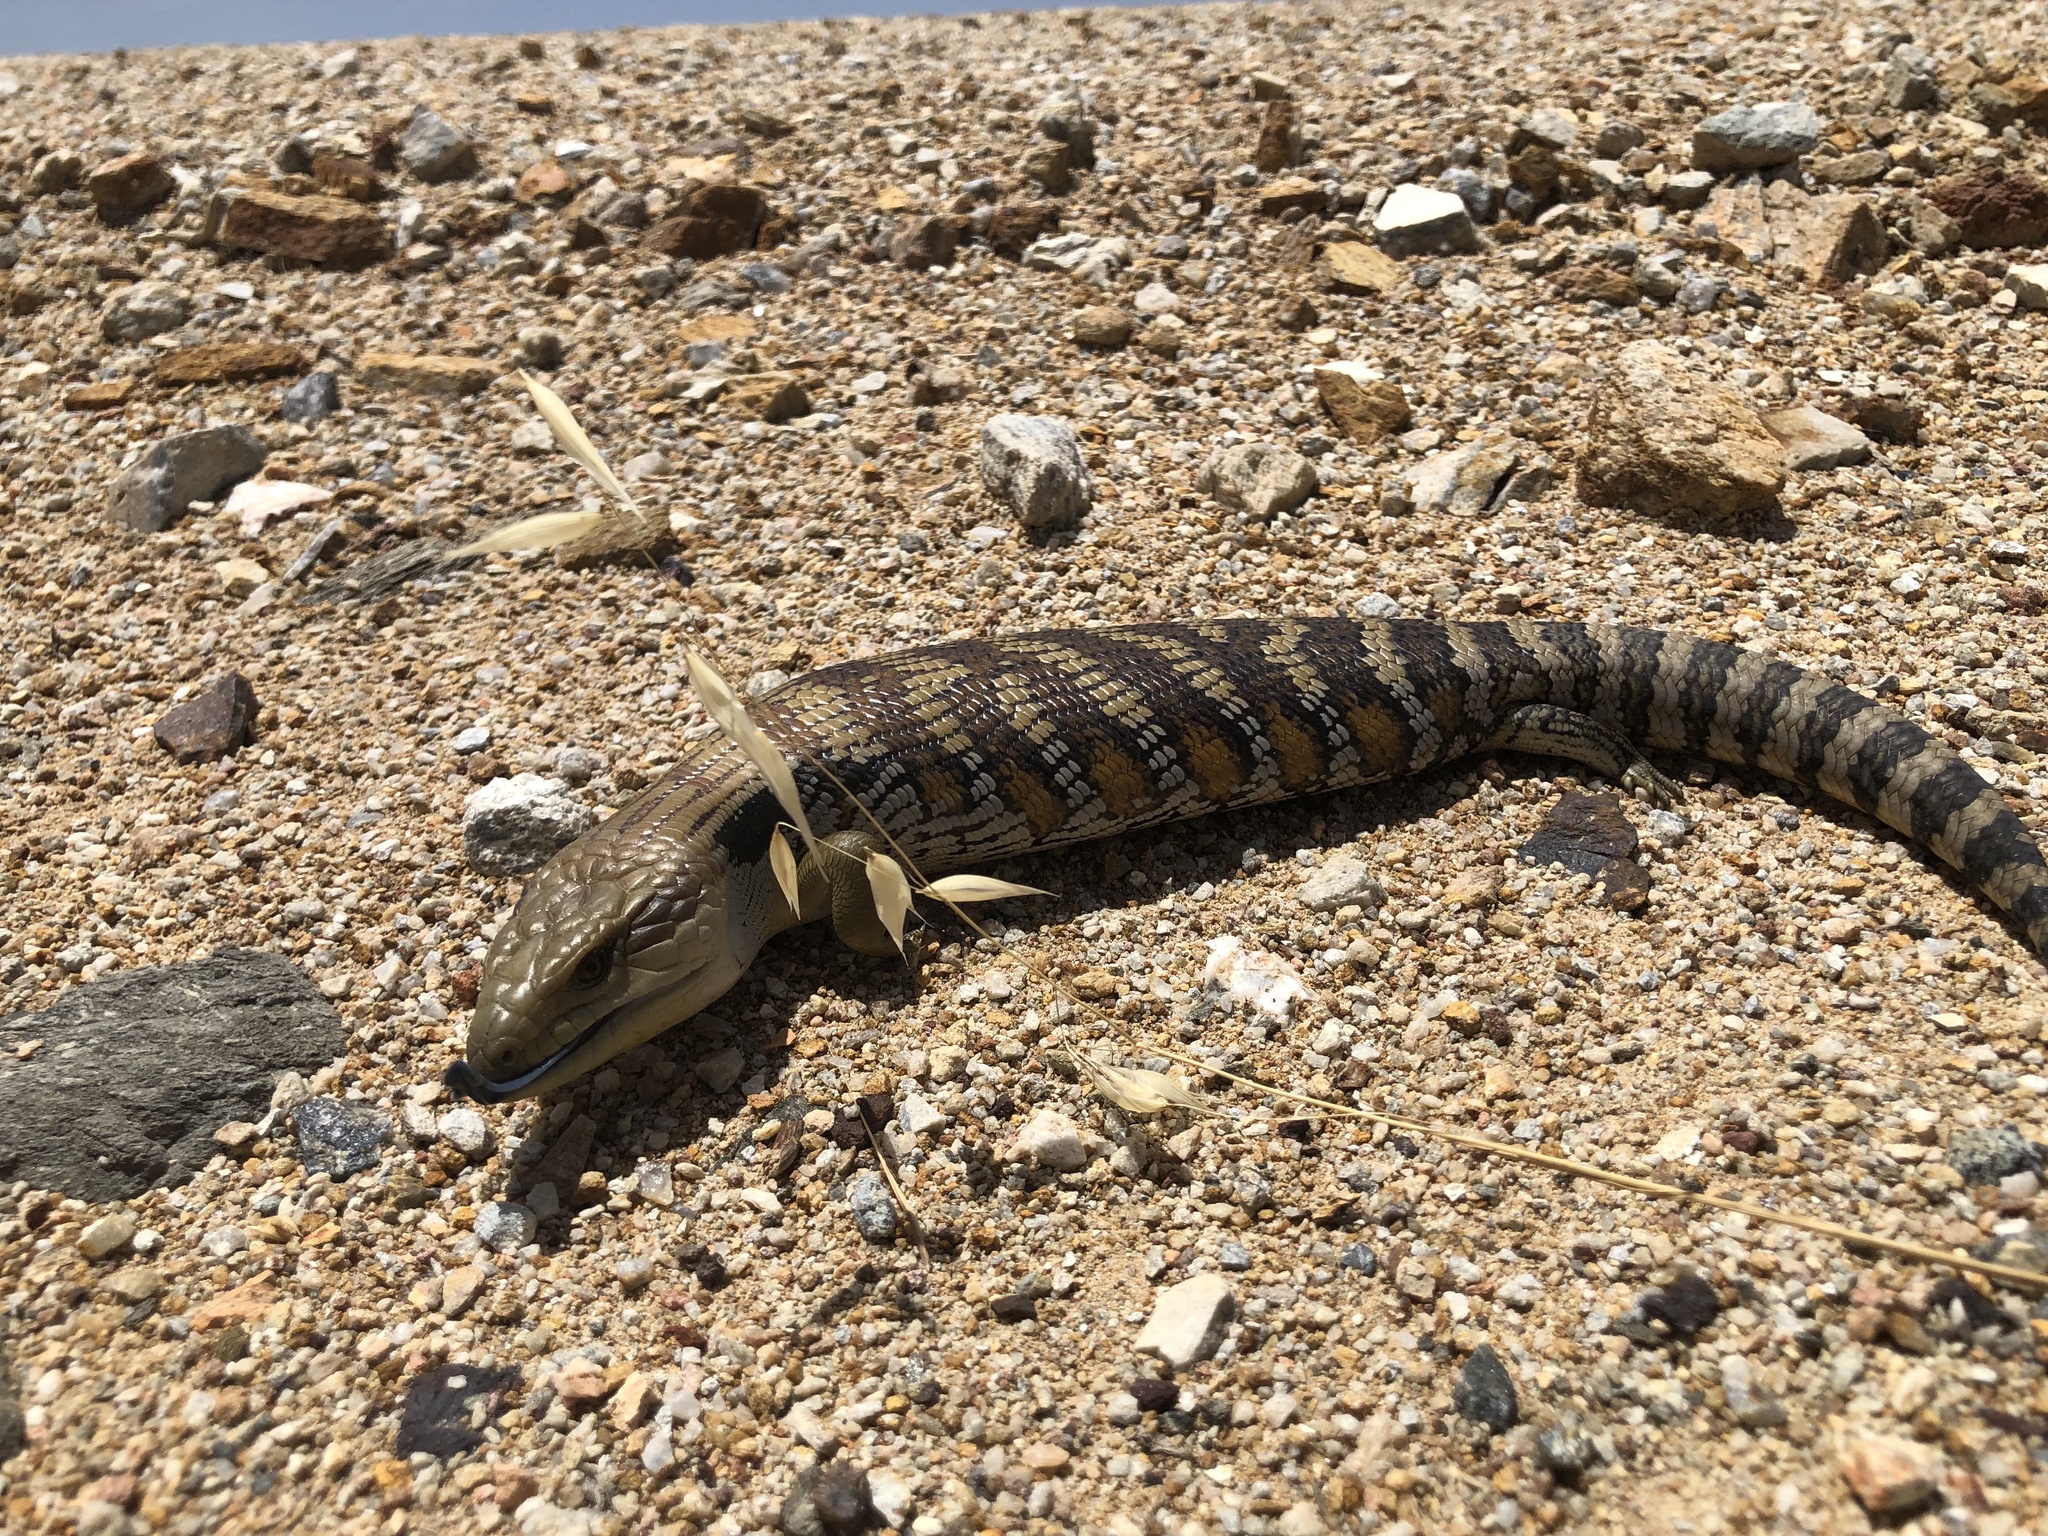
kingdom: Animalia
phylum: Chordata
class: Squamata
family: Scincidae
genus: Tiliqua
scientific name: Tiliqua scincoides
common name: Common bluetongue
